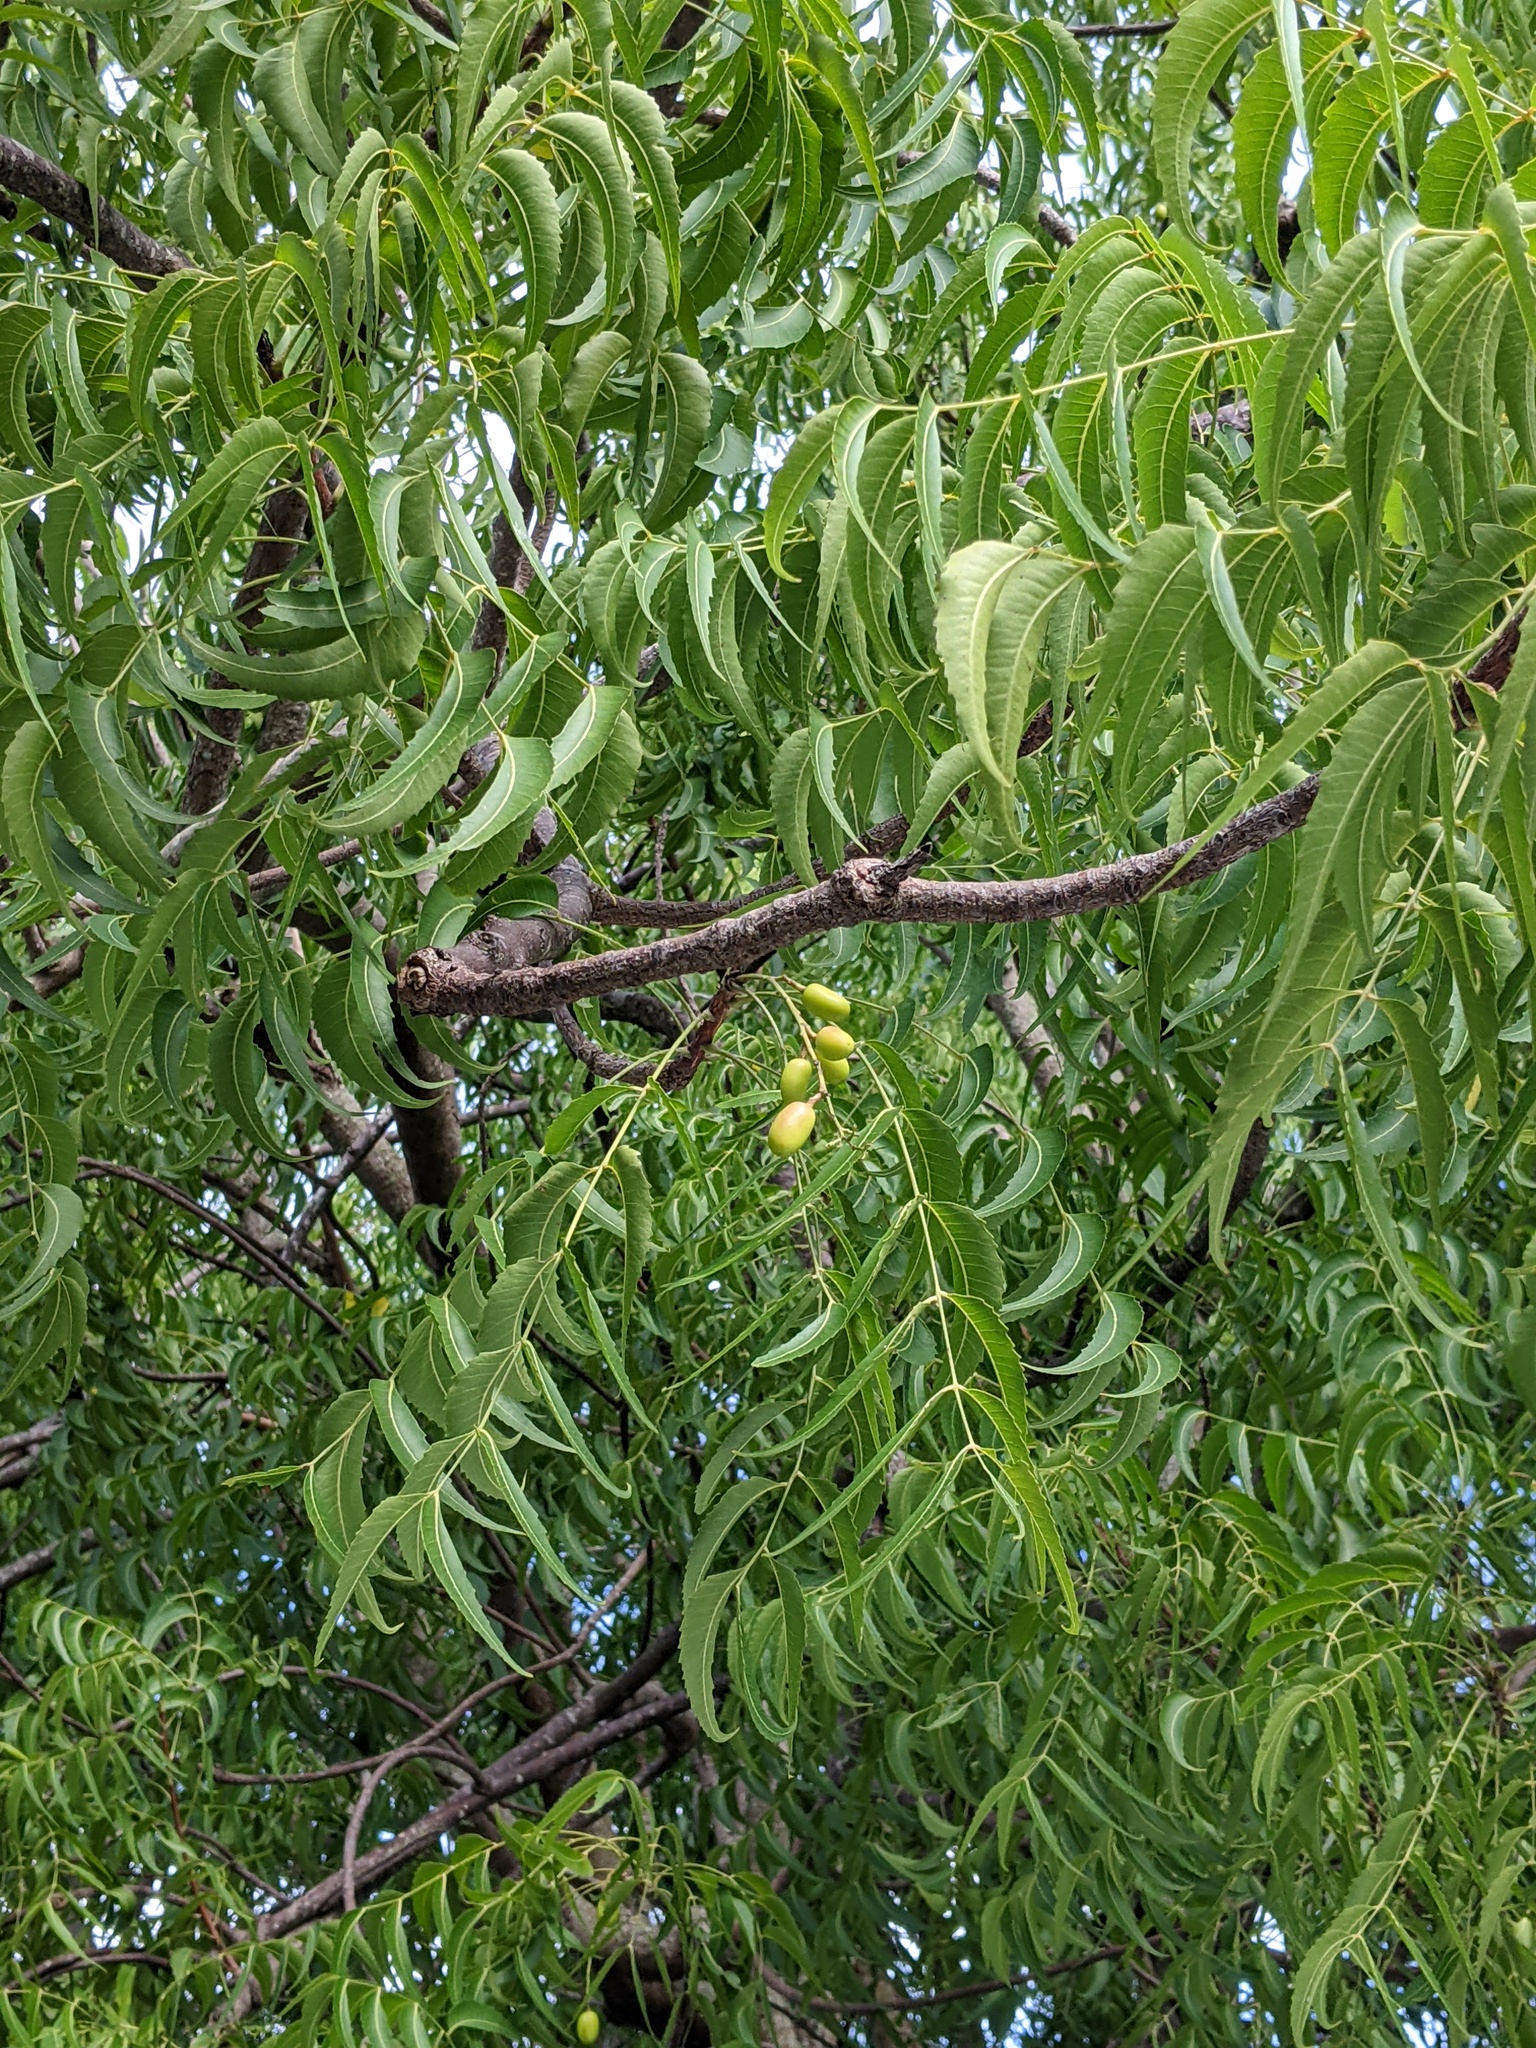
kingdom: Plantae
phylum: Tracheophyta
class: Magnoliopsida
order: Sapindales
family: Meliaceae
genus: Azadirachta
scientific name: Azadirachta indica
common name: Neem
